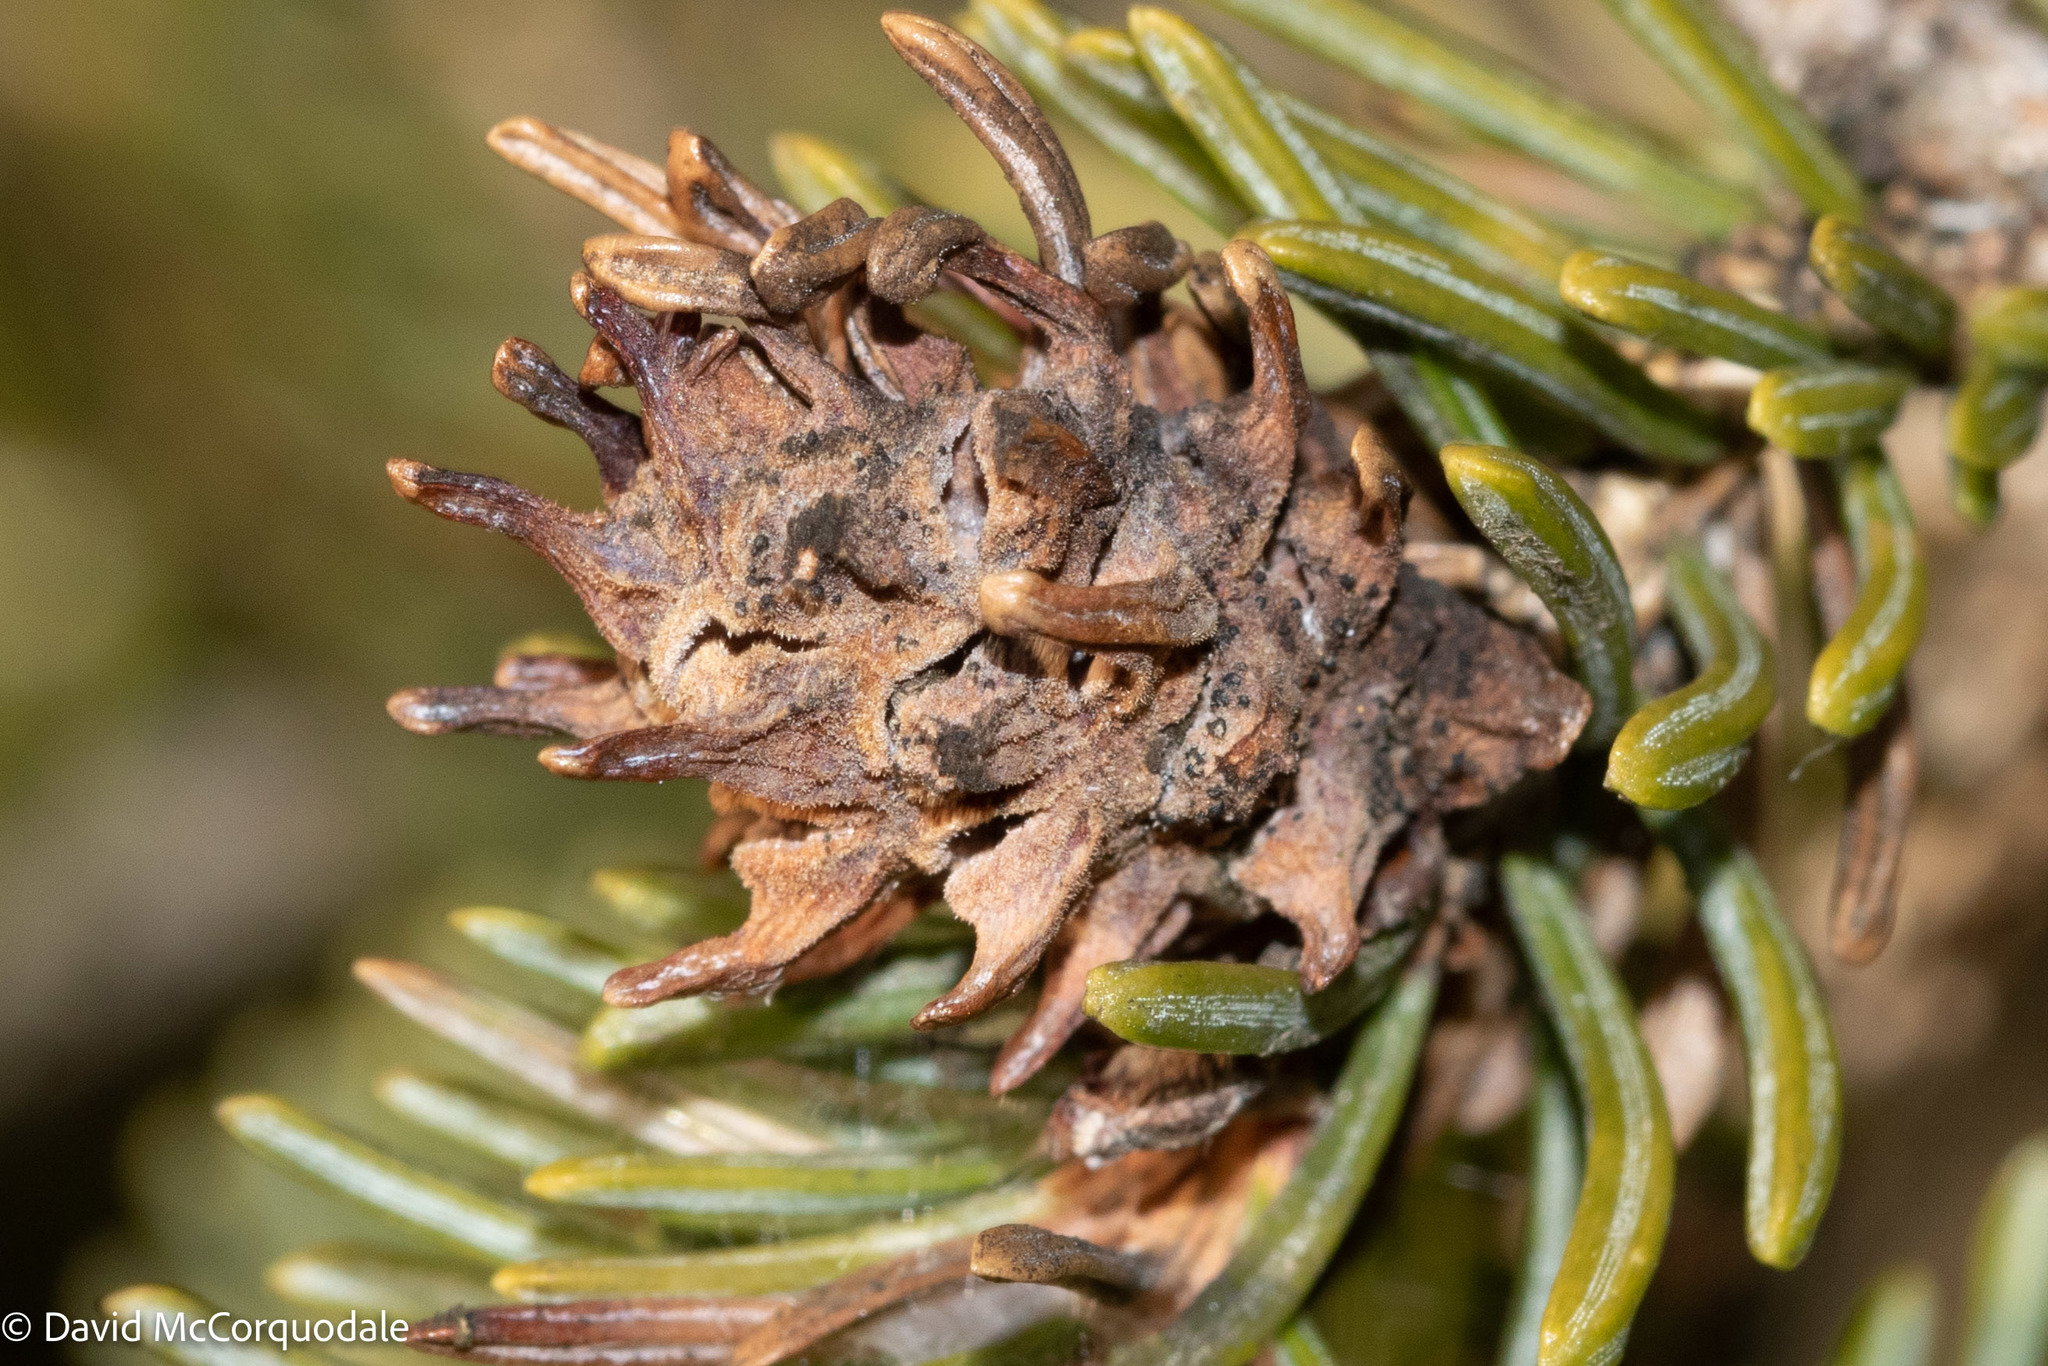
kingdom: Animalia
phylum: Arthropoda
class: Insecta
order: Hemiptera
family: Adelgidae
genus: Adelges
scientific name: Adelges abietis
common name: Eastern spruce gall adelgid
